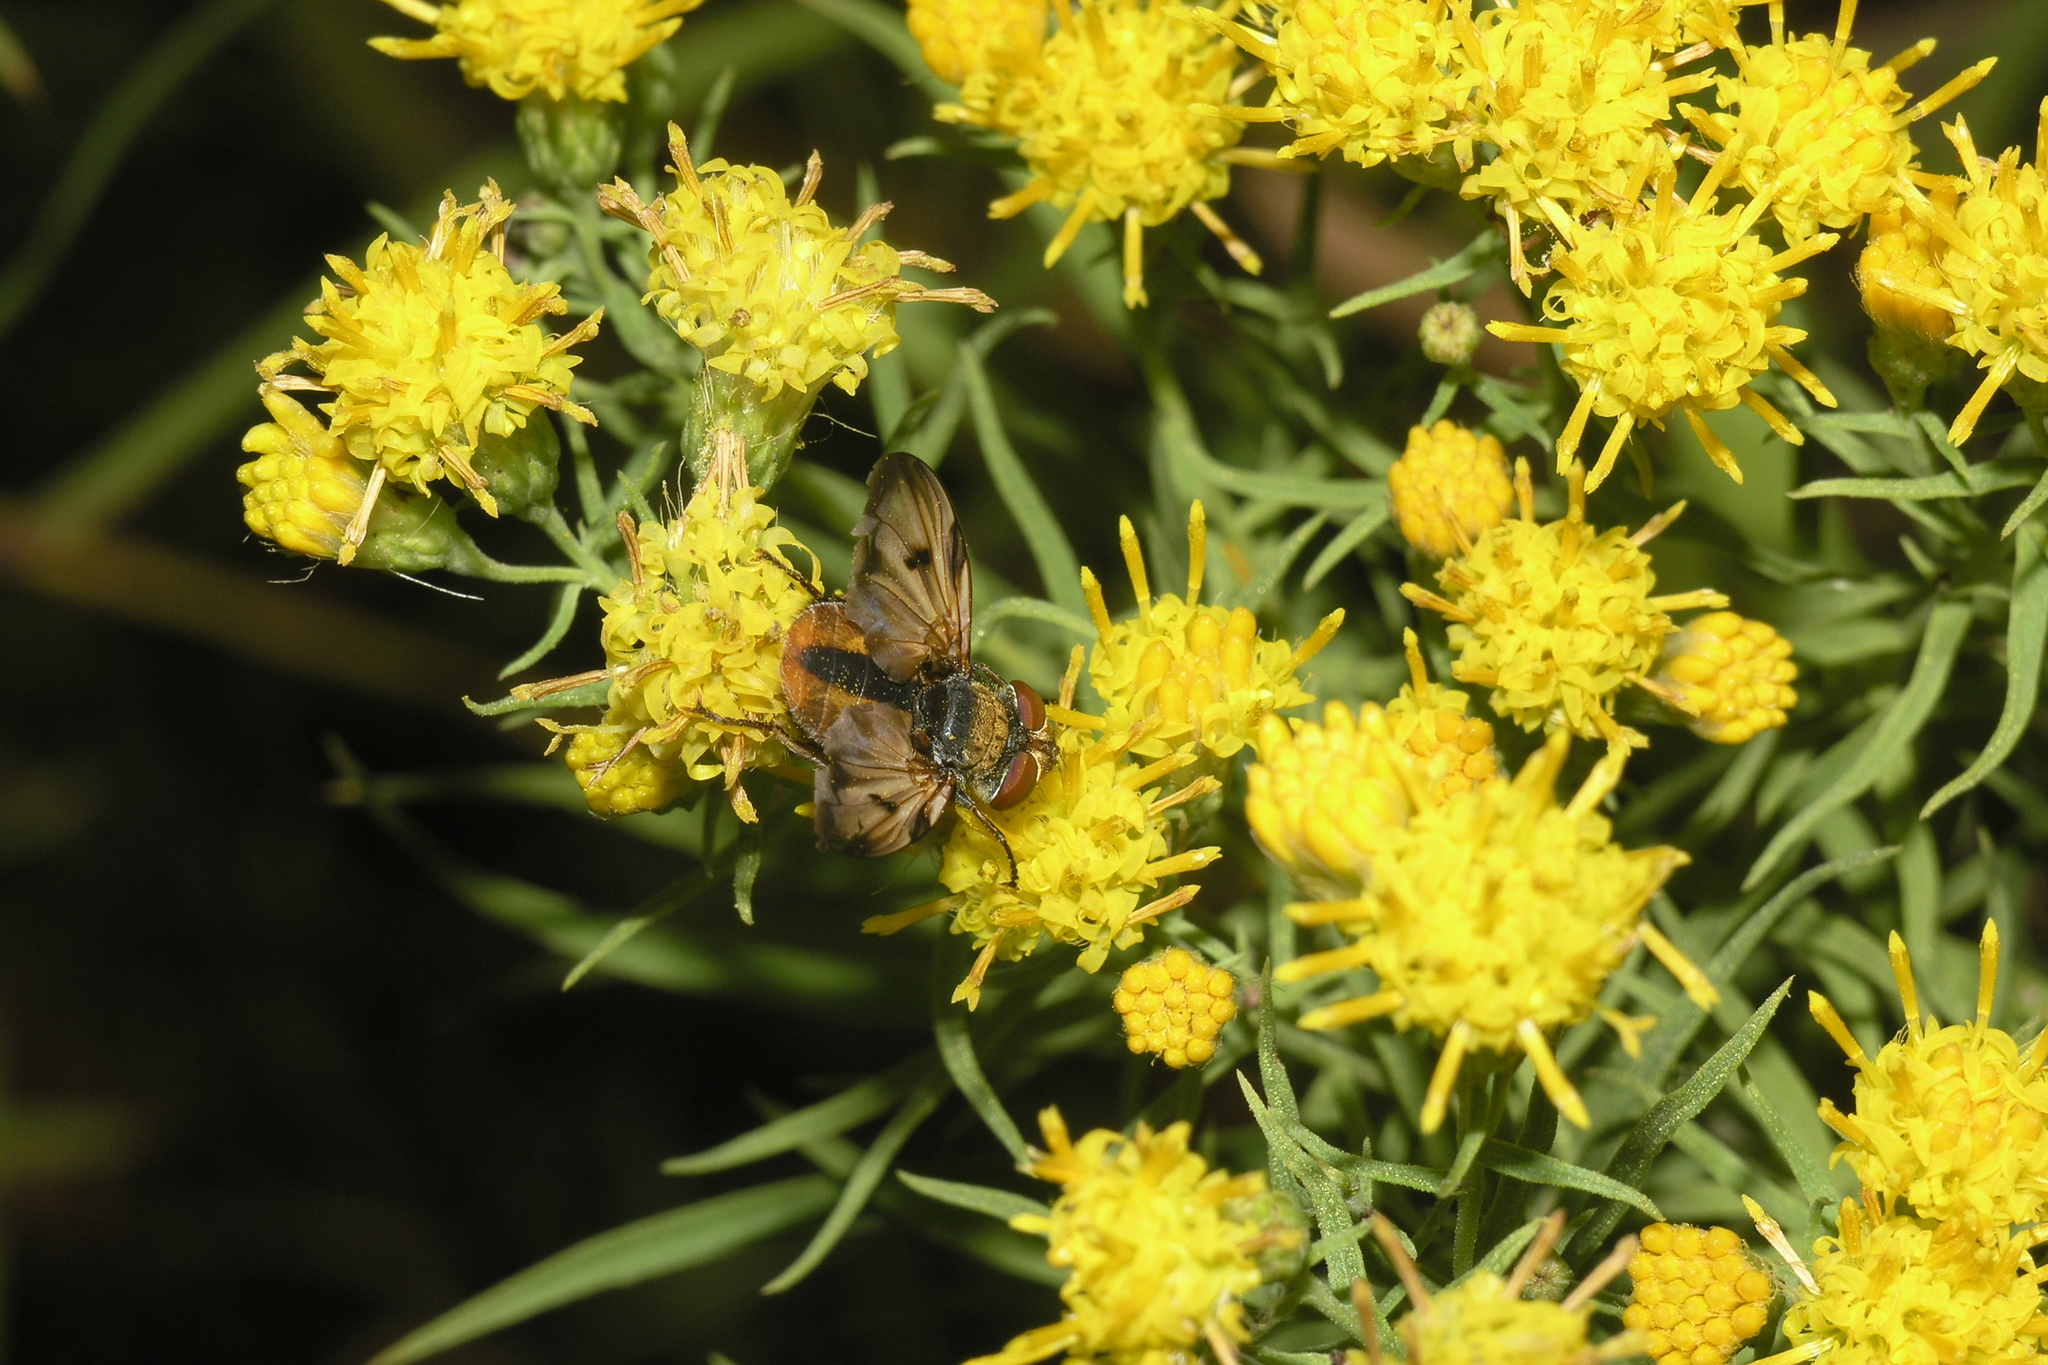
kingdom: Plantae
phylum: Tracheophyta
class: Magnoliopsida
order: Asterales
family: Asteraceae
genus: Galatella
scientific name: Galatella biflora
